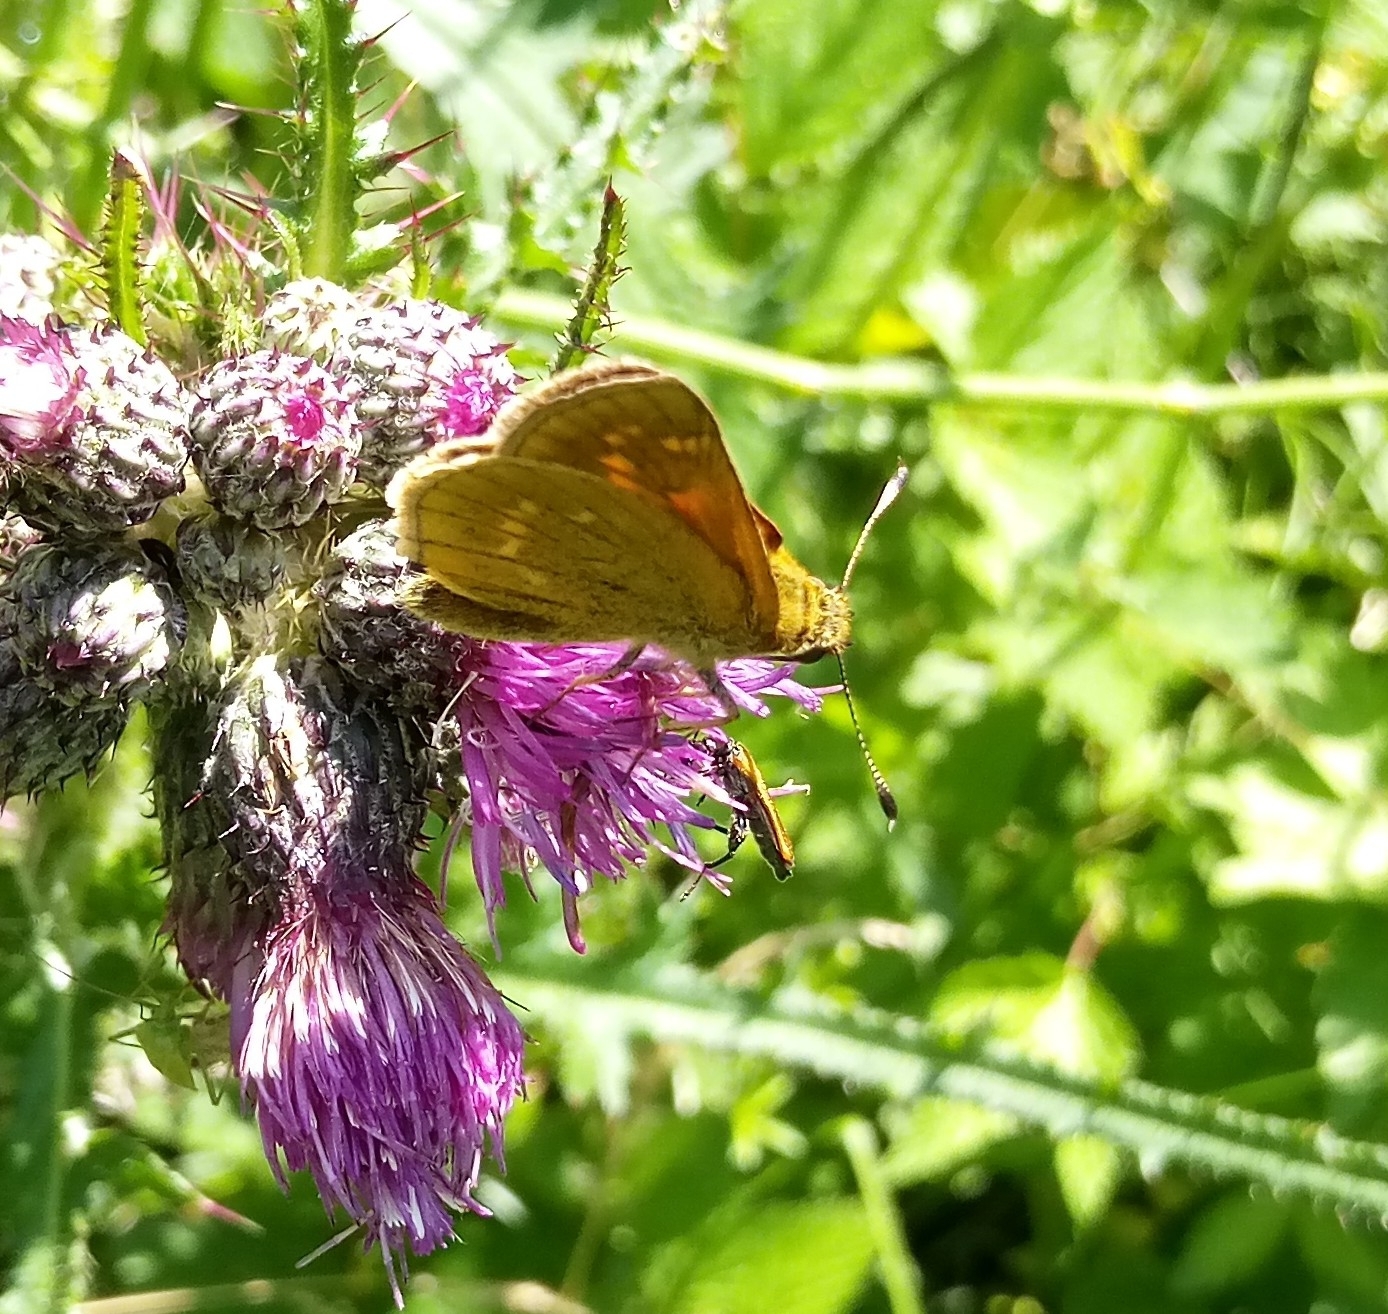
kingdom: Animalia
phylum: Arthropoda
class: Insecta
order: Lepidoptera
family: Hesperiidae
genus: Ochlodes
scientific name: Ochlodes venata
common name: Large skipper
